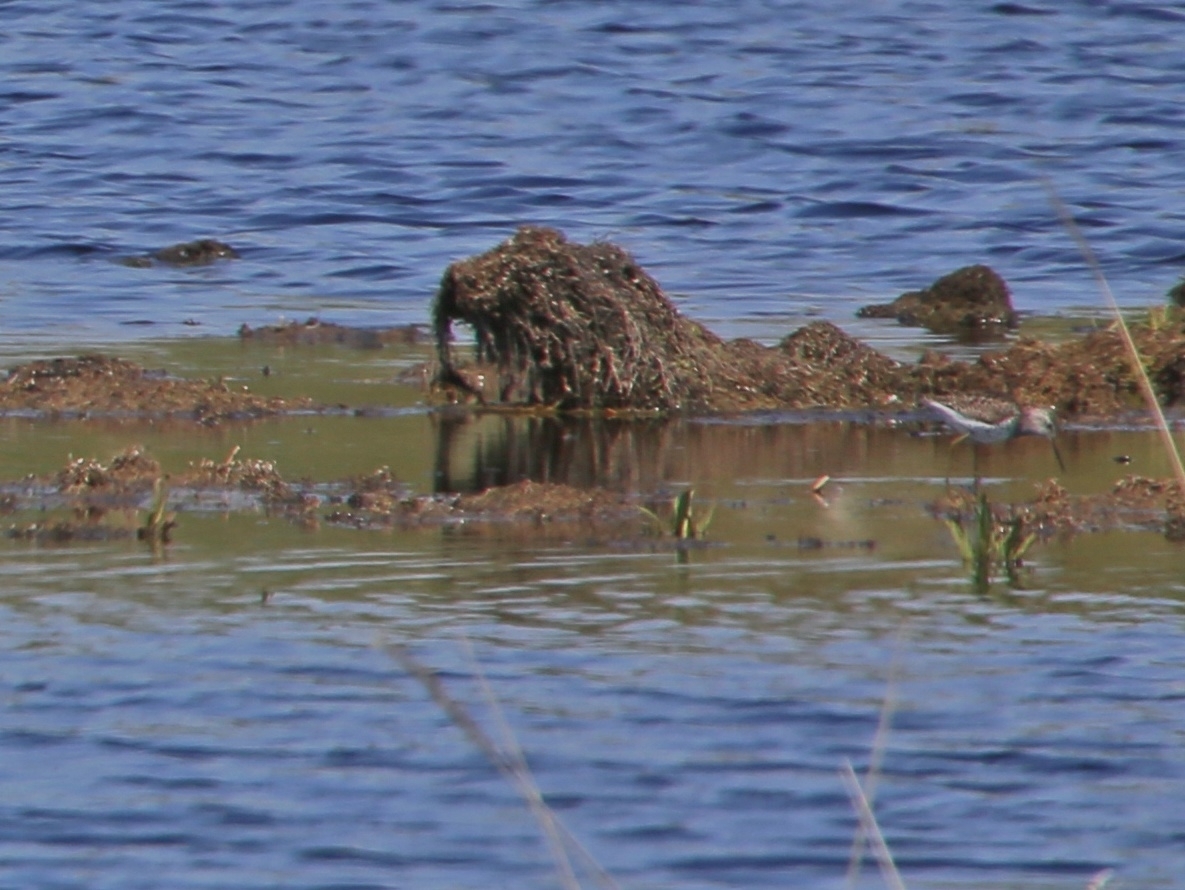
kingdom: Animalia
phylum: Chordata
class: Aves
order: Charadriiformes
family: Scolopacidae
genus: Tringa
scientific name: Tringa stagnatilis
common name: Marsh sandpiper
